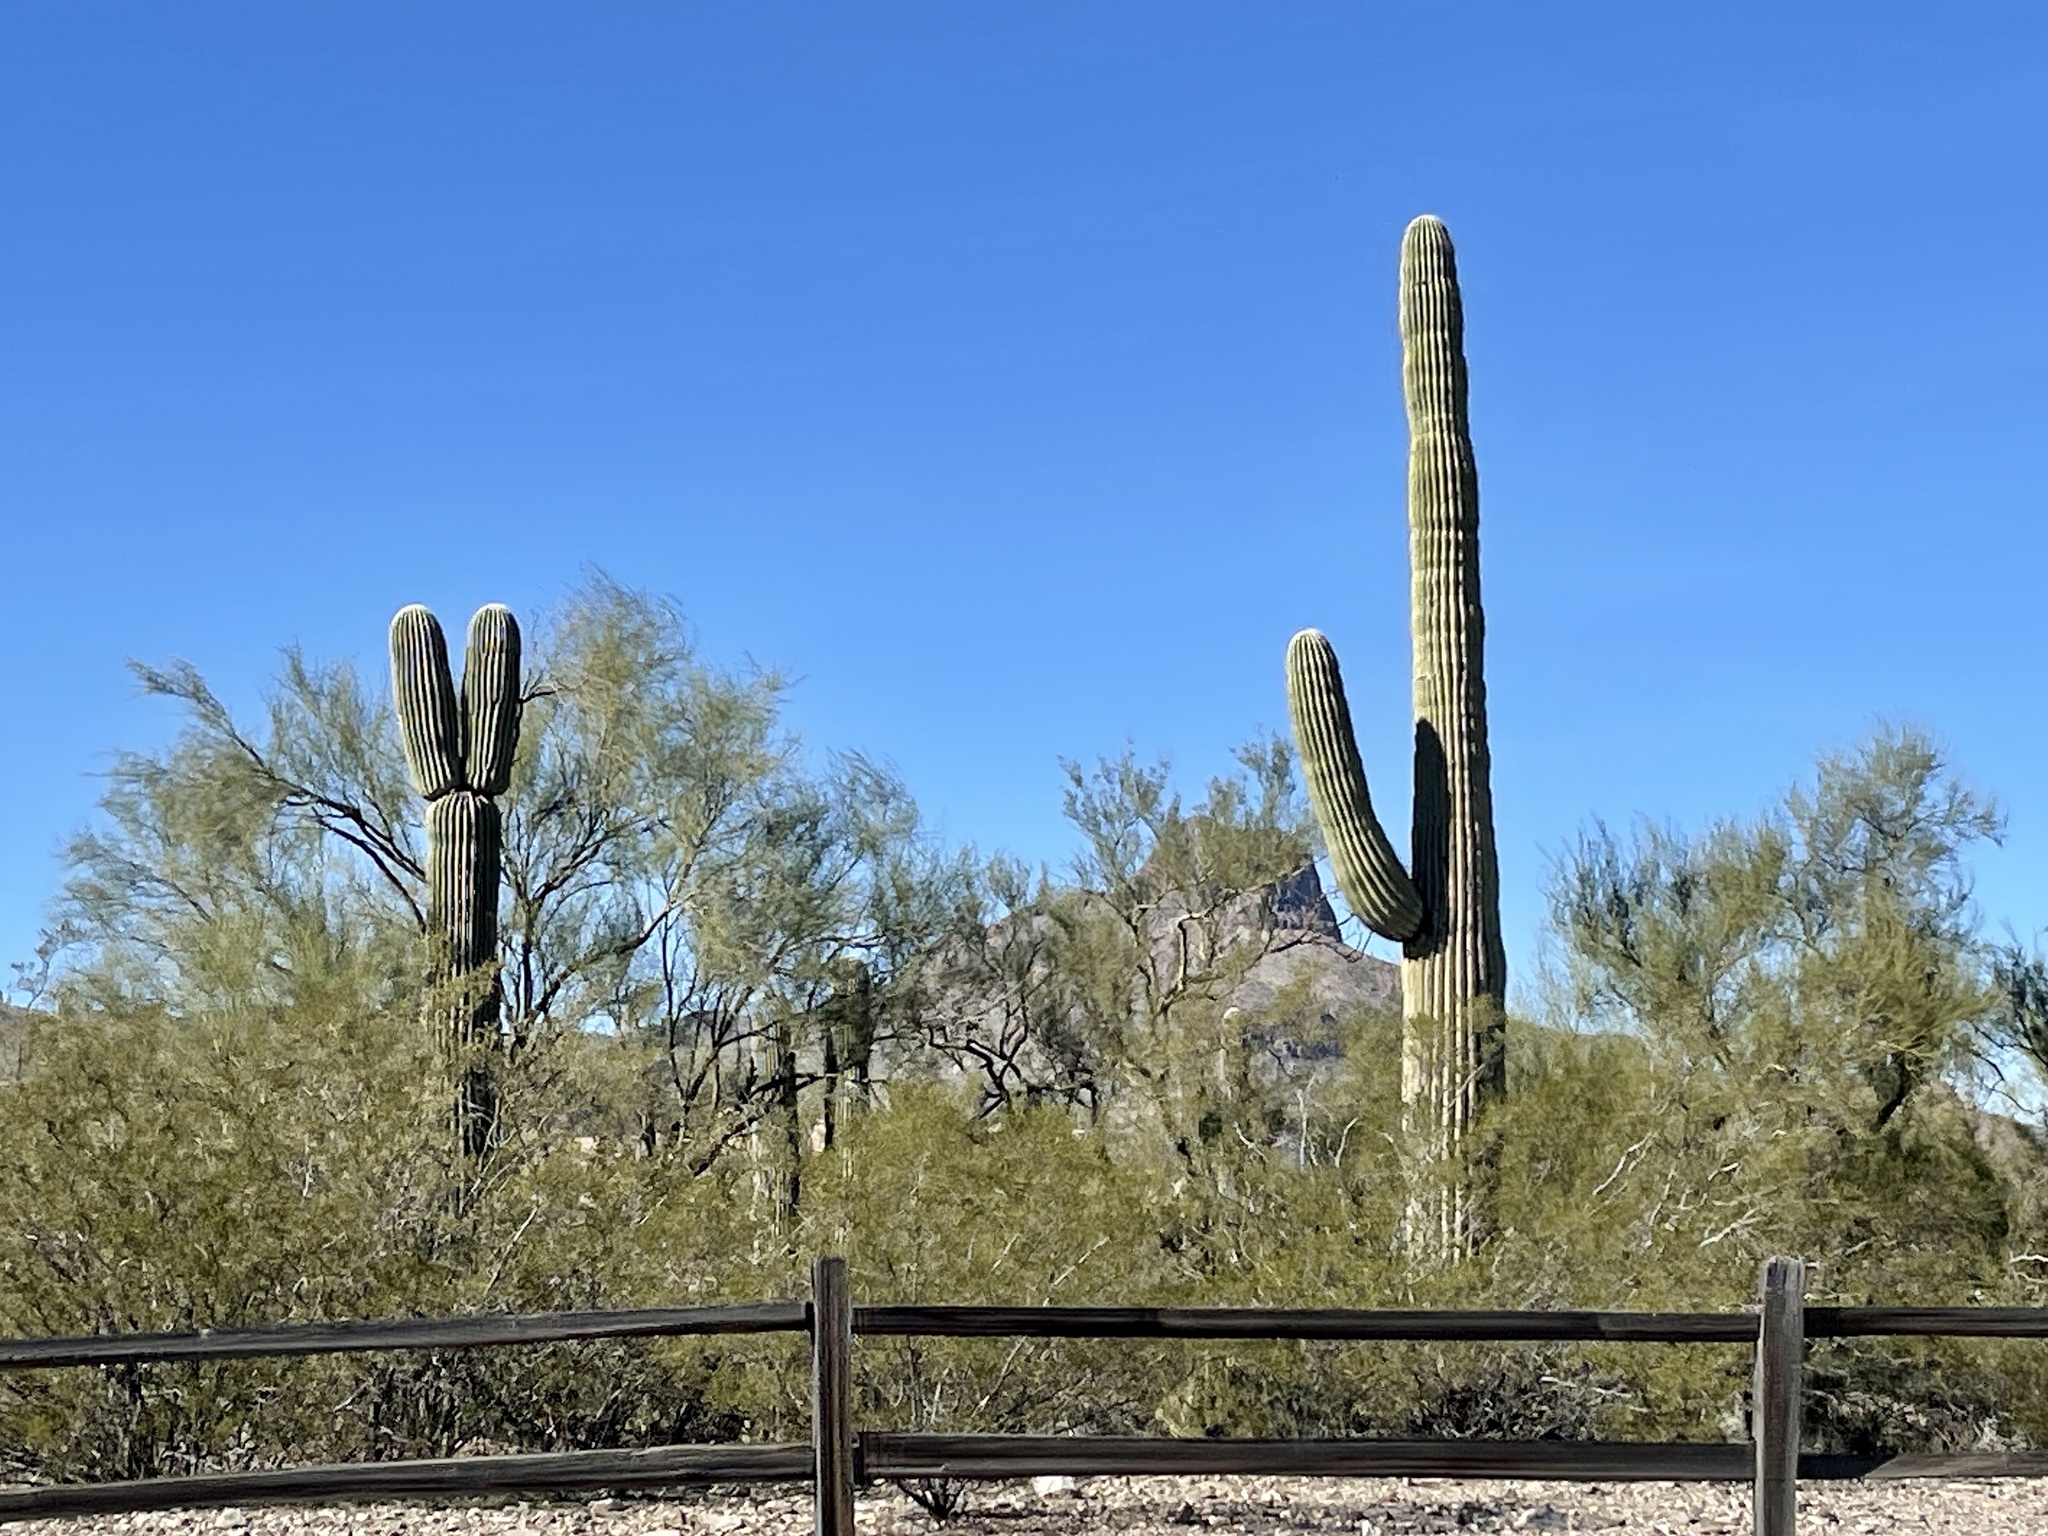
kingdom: Plantae
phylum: Tracheophyta
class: Magnoliopsida
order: Caryophyllales
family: Cactaceae
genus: Carnegiea
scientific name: Carnegiea gigantea
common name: Saguaro
